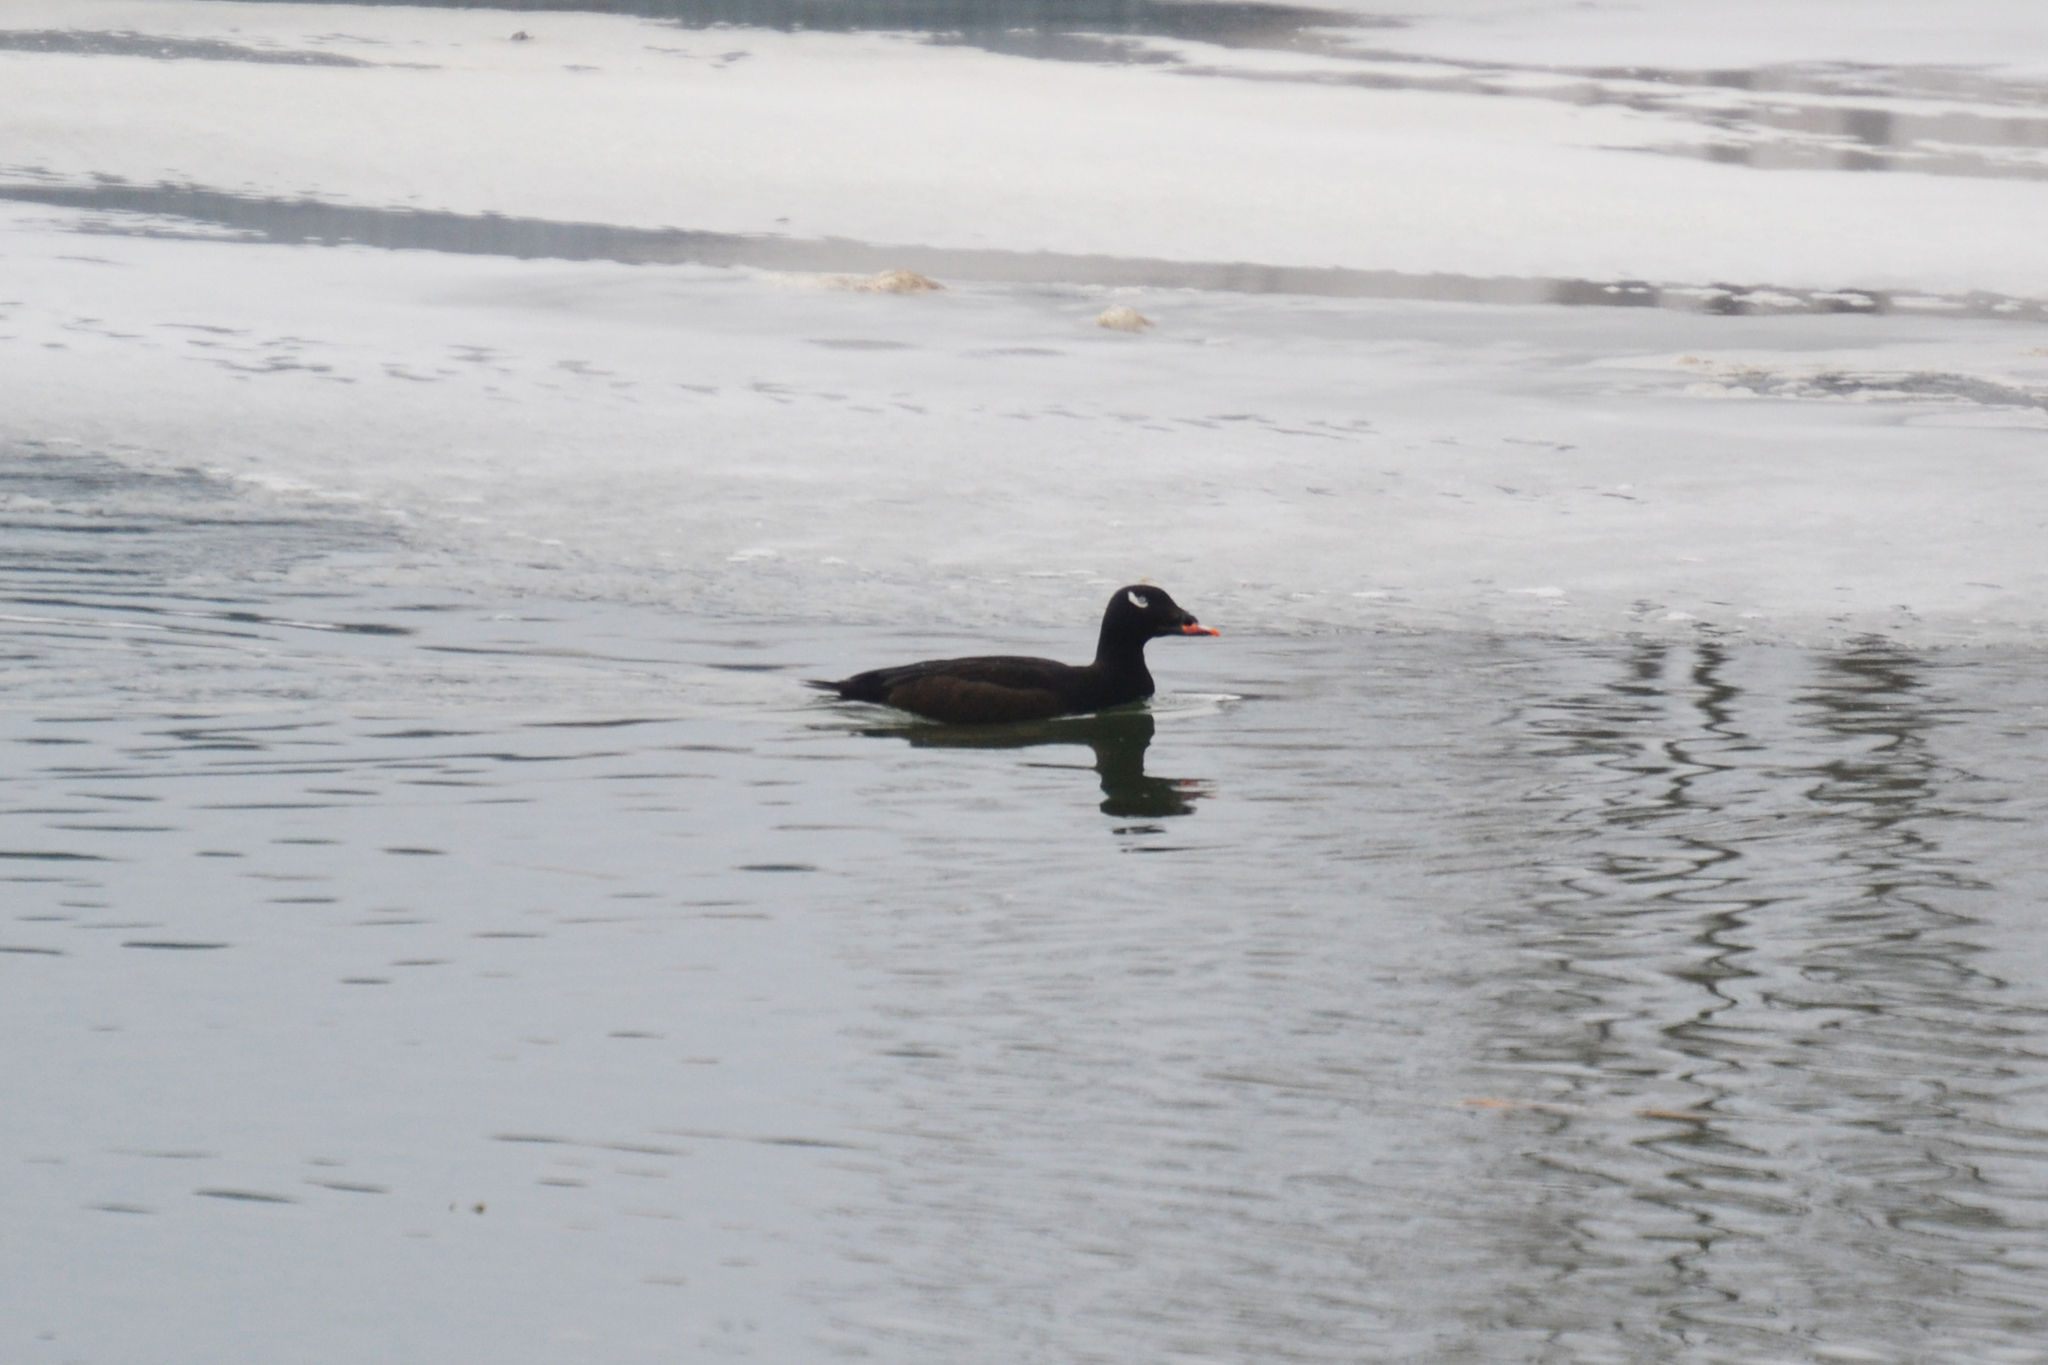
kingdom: Animalia
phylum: Chordata
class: Aves
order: Anseriformes
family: Anatidae
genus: Melanitta
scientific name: Melanitta deglandi
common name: White-winged scoter
